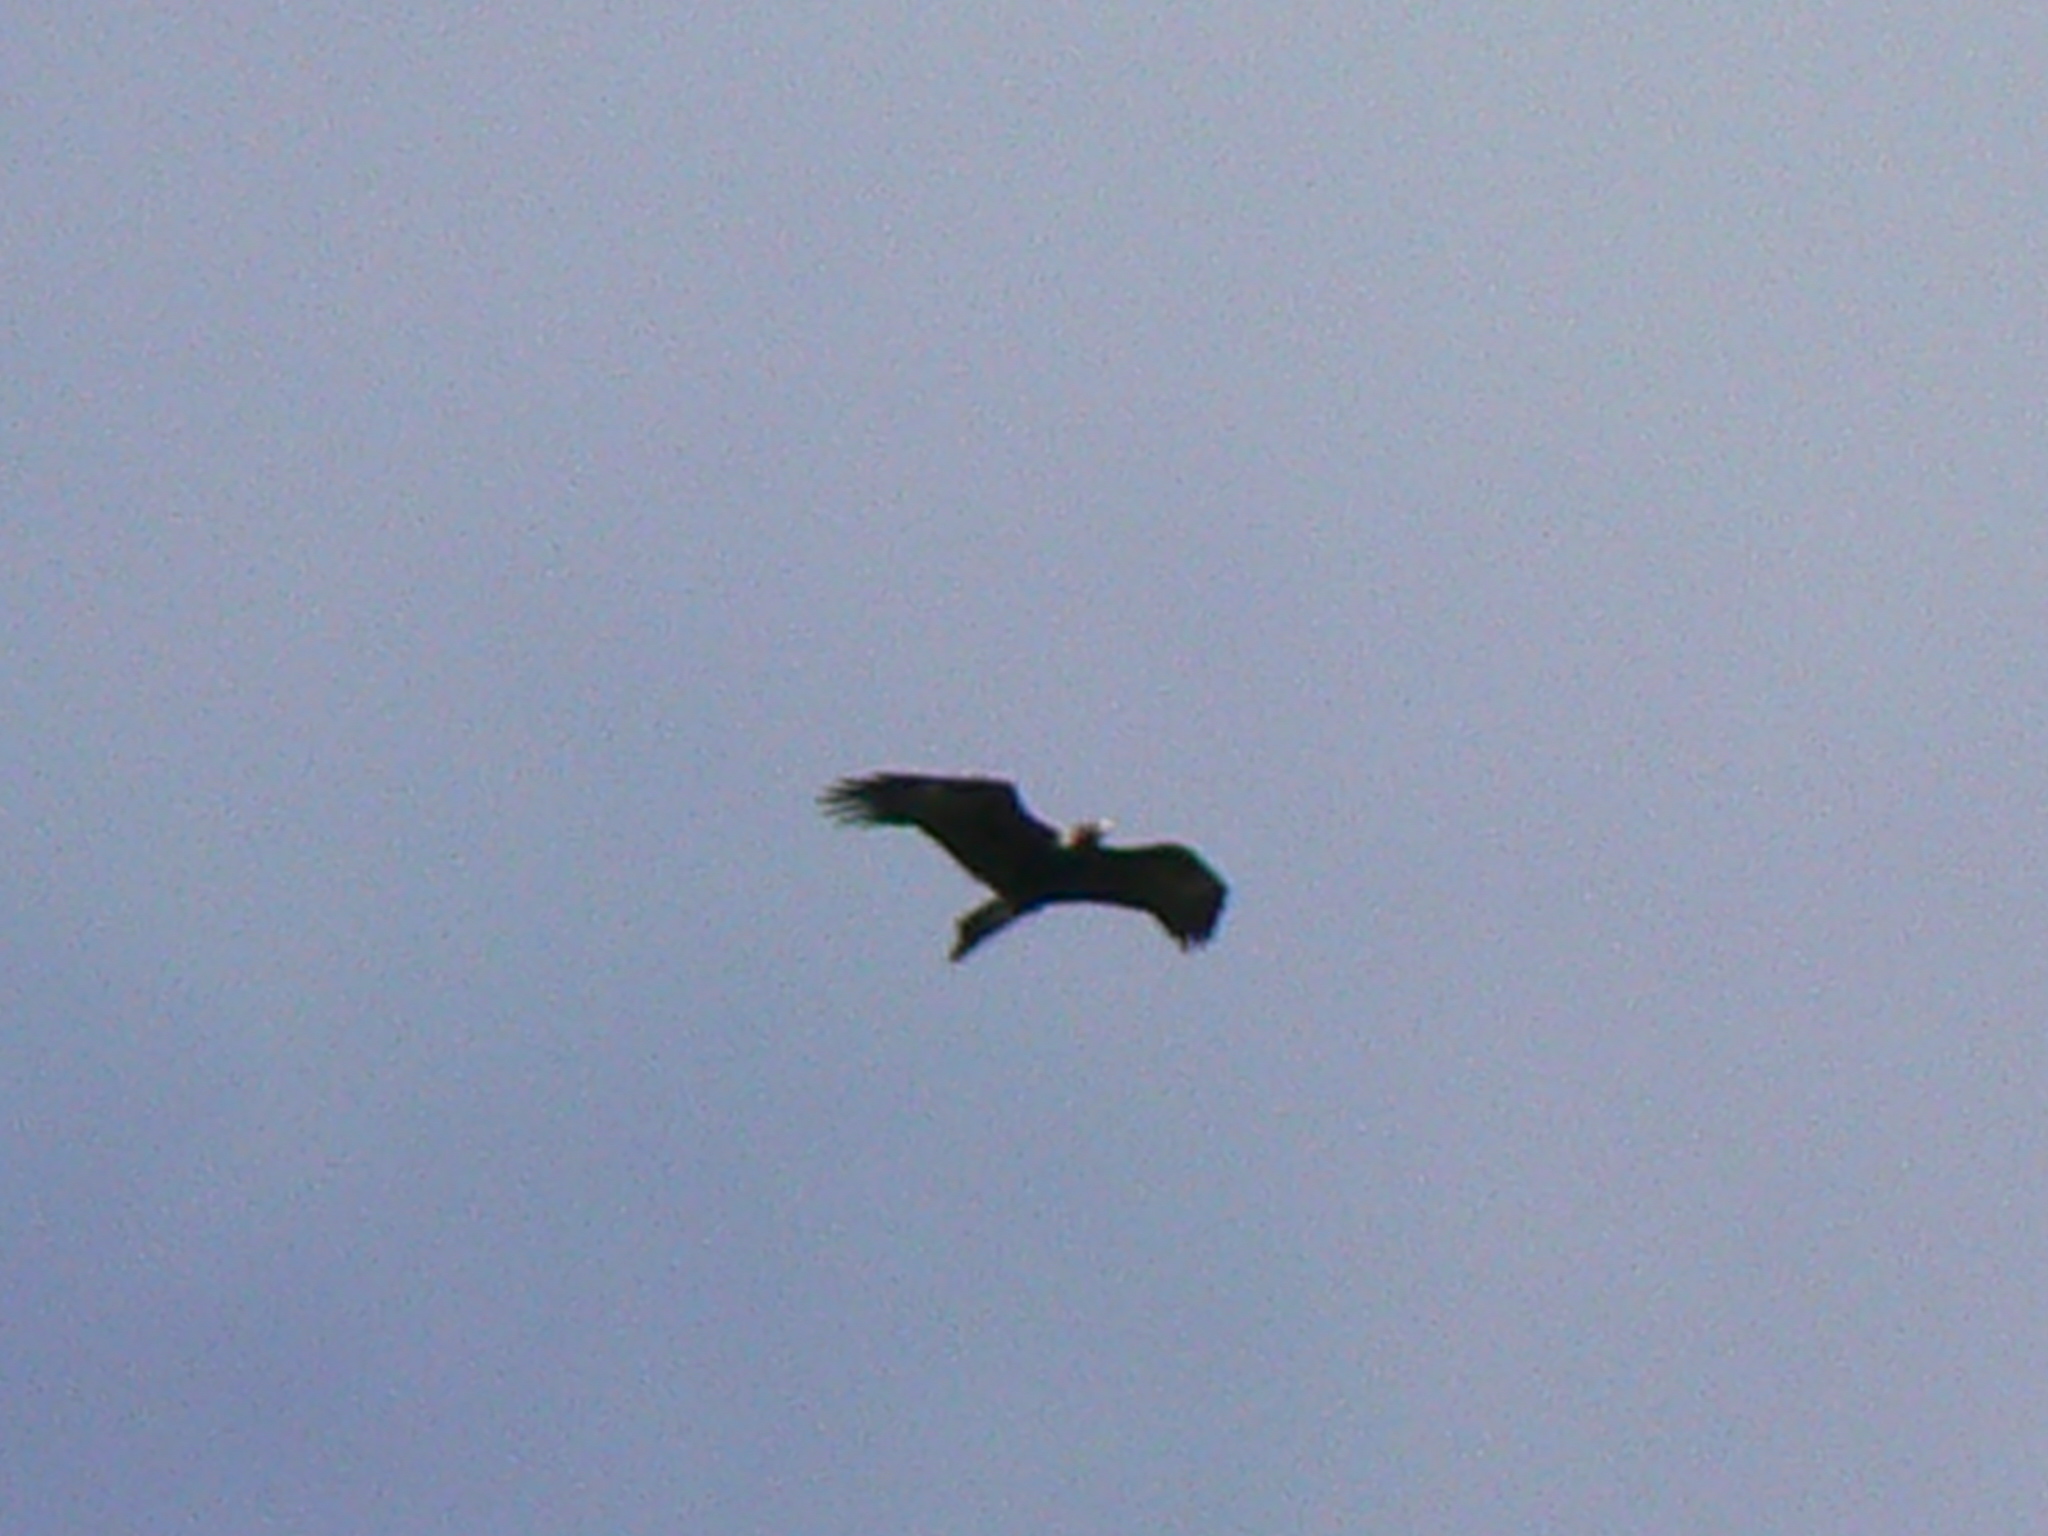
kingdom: Animalia
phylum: Chordata
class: Aves
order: Accipitriformes
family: Accipitridae
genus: Aquila
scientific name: Aquila audax
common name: Wedge-tailed eagle
